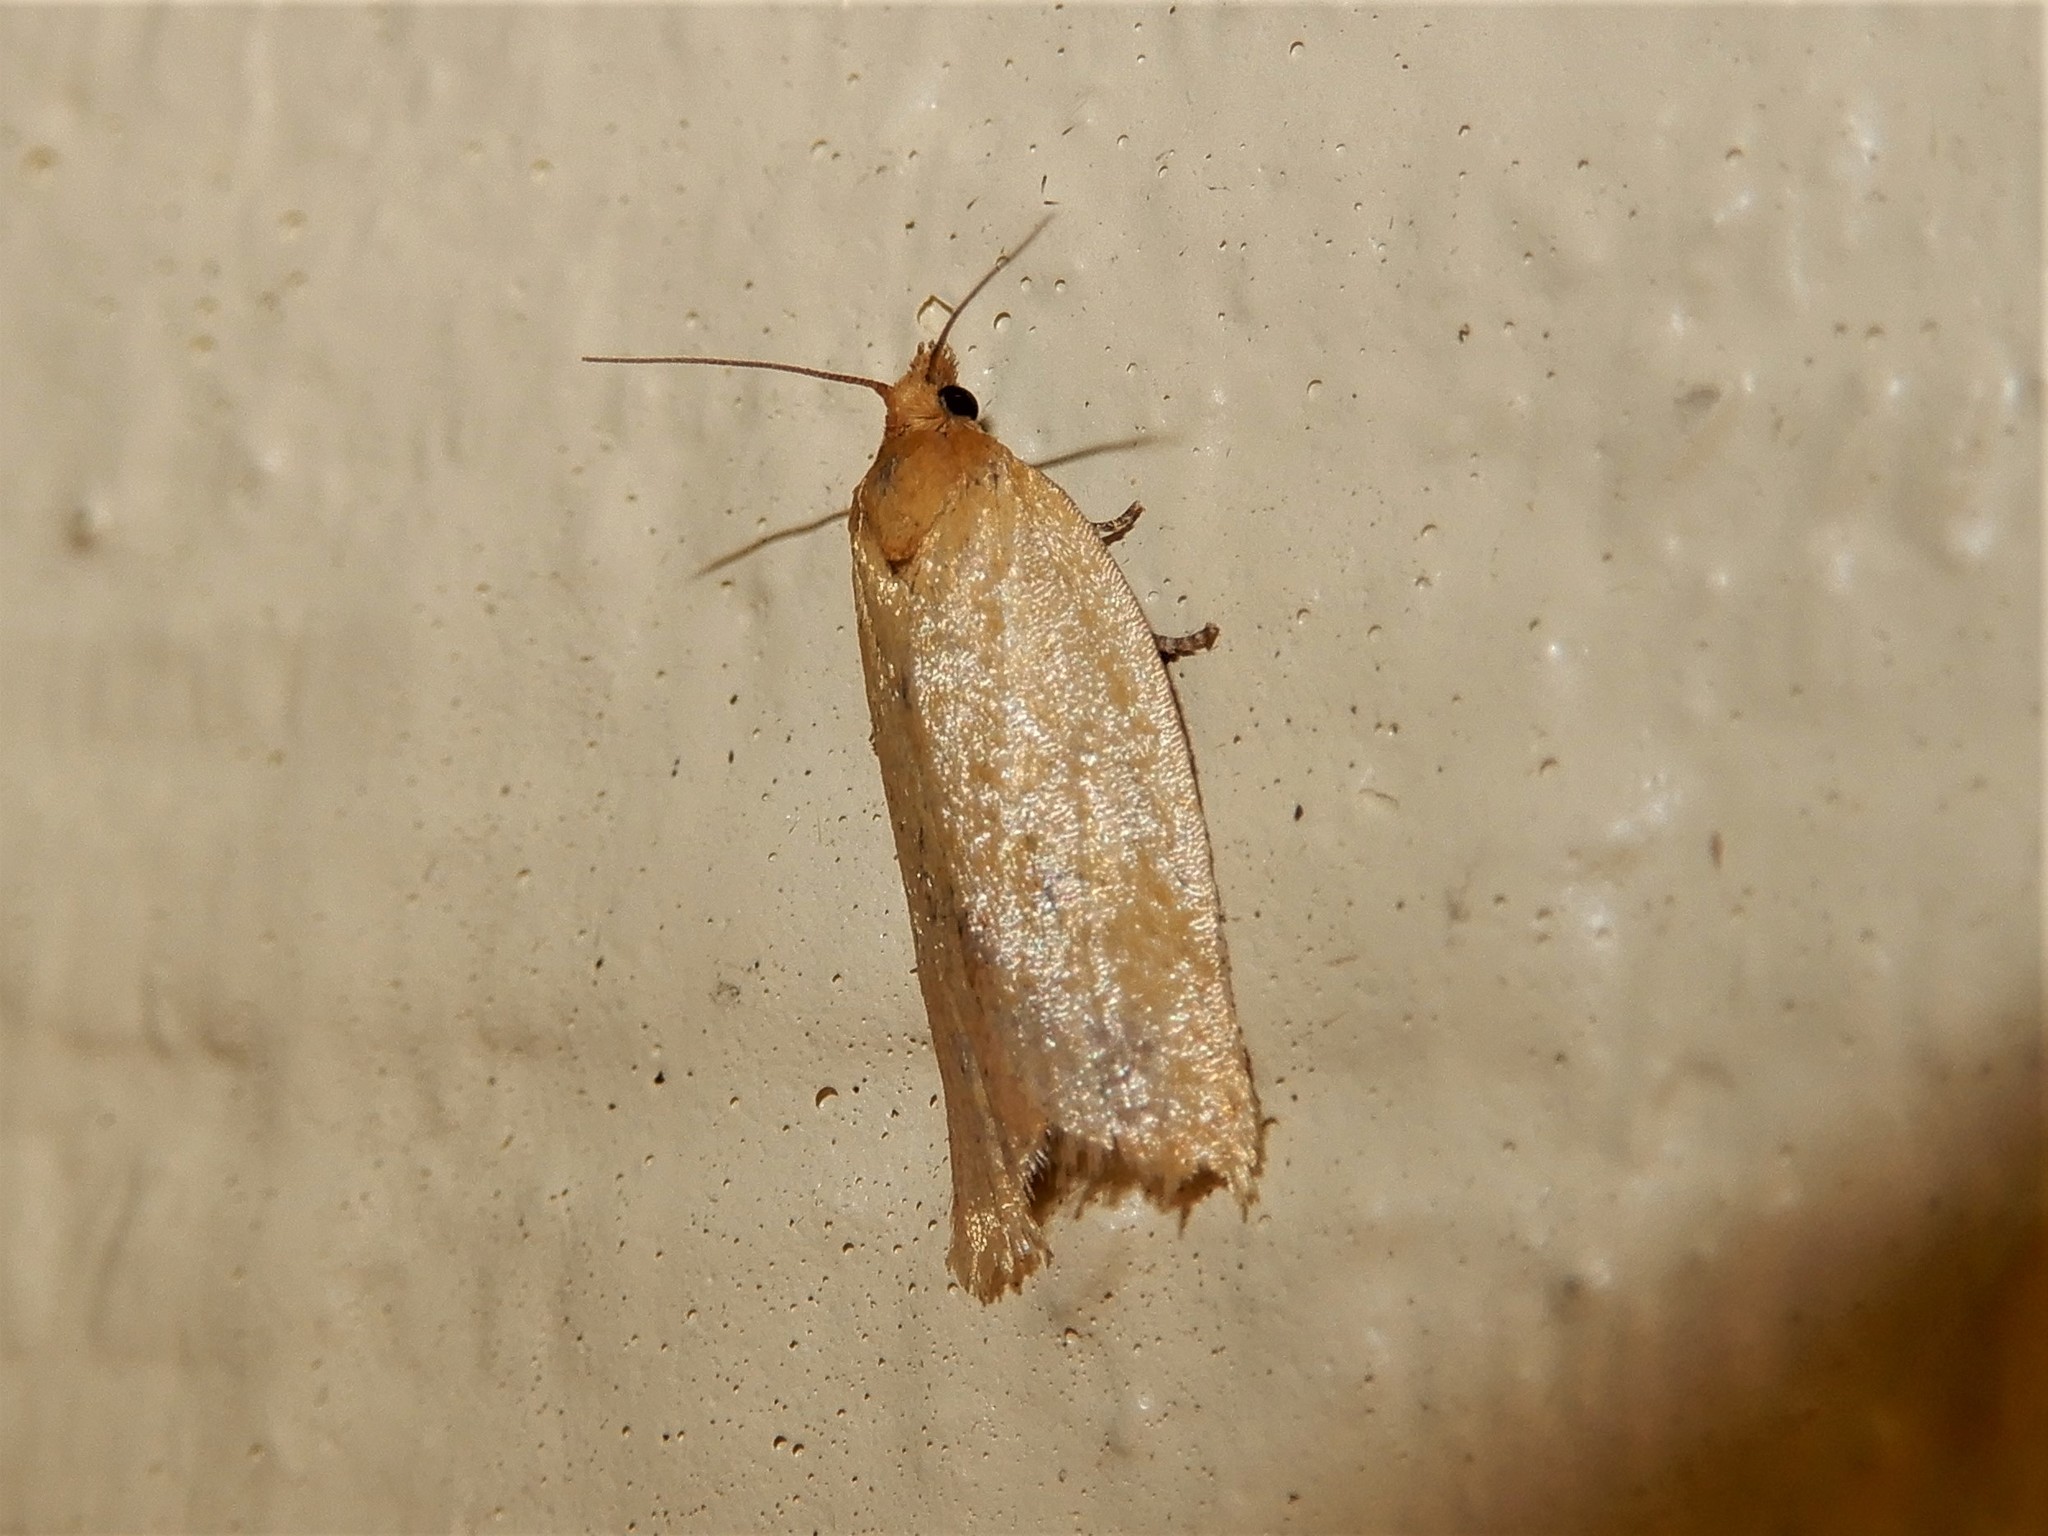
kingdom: Animalia
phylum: Arthropoda
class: Insecta
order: Lepidoptera
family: Tortricidae
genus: Clepsis
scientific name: Clepsis
